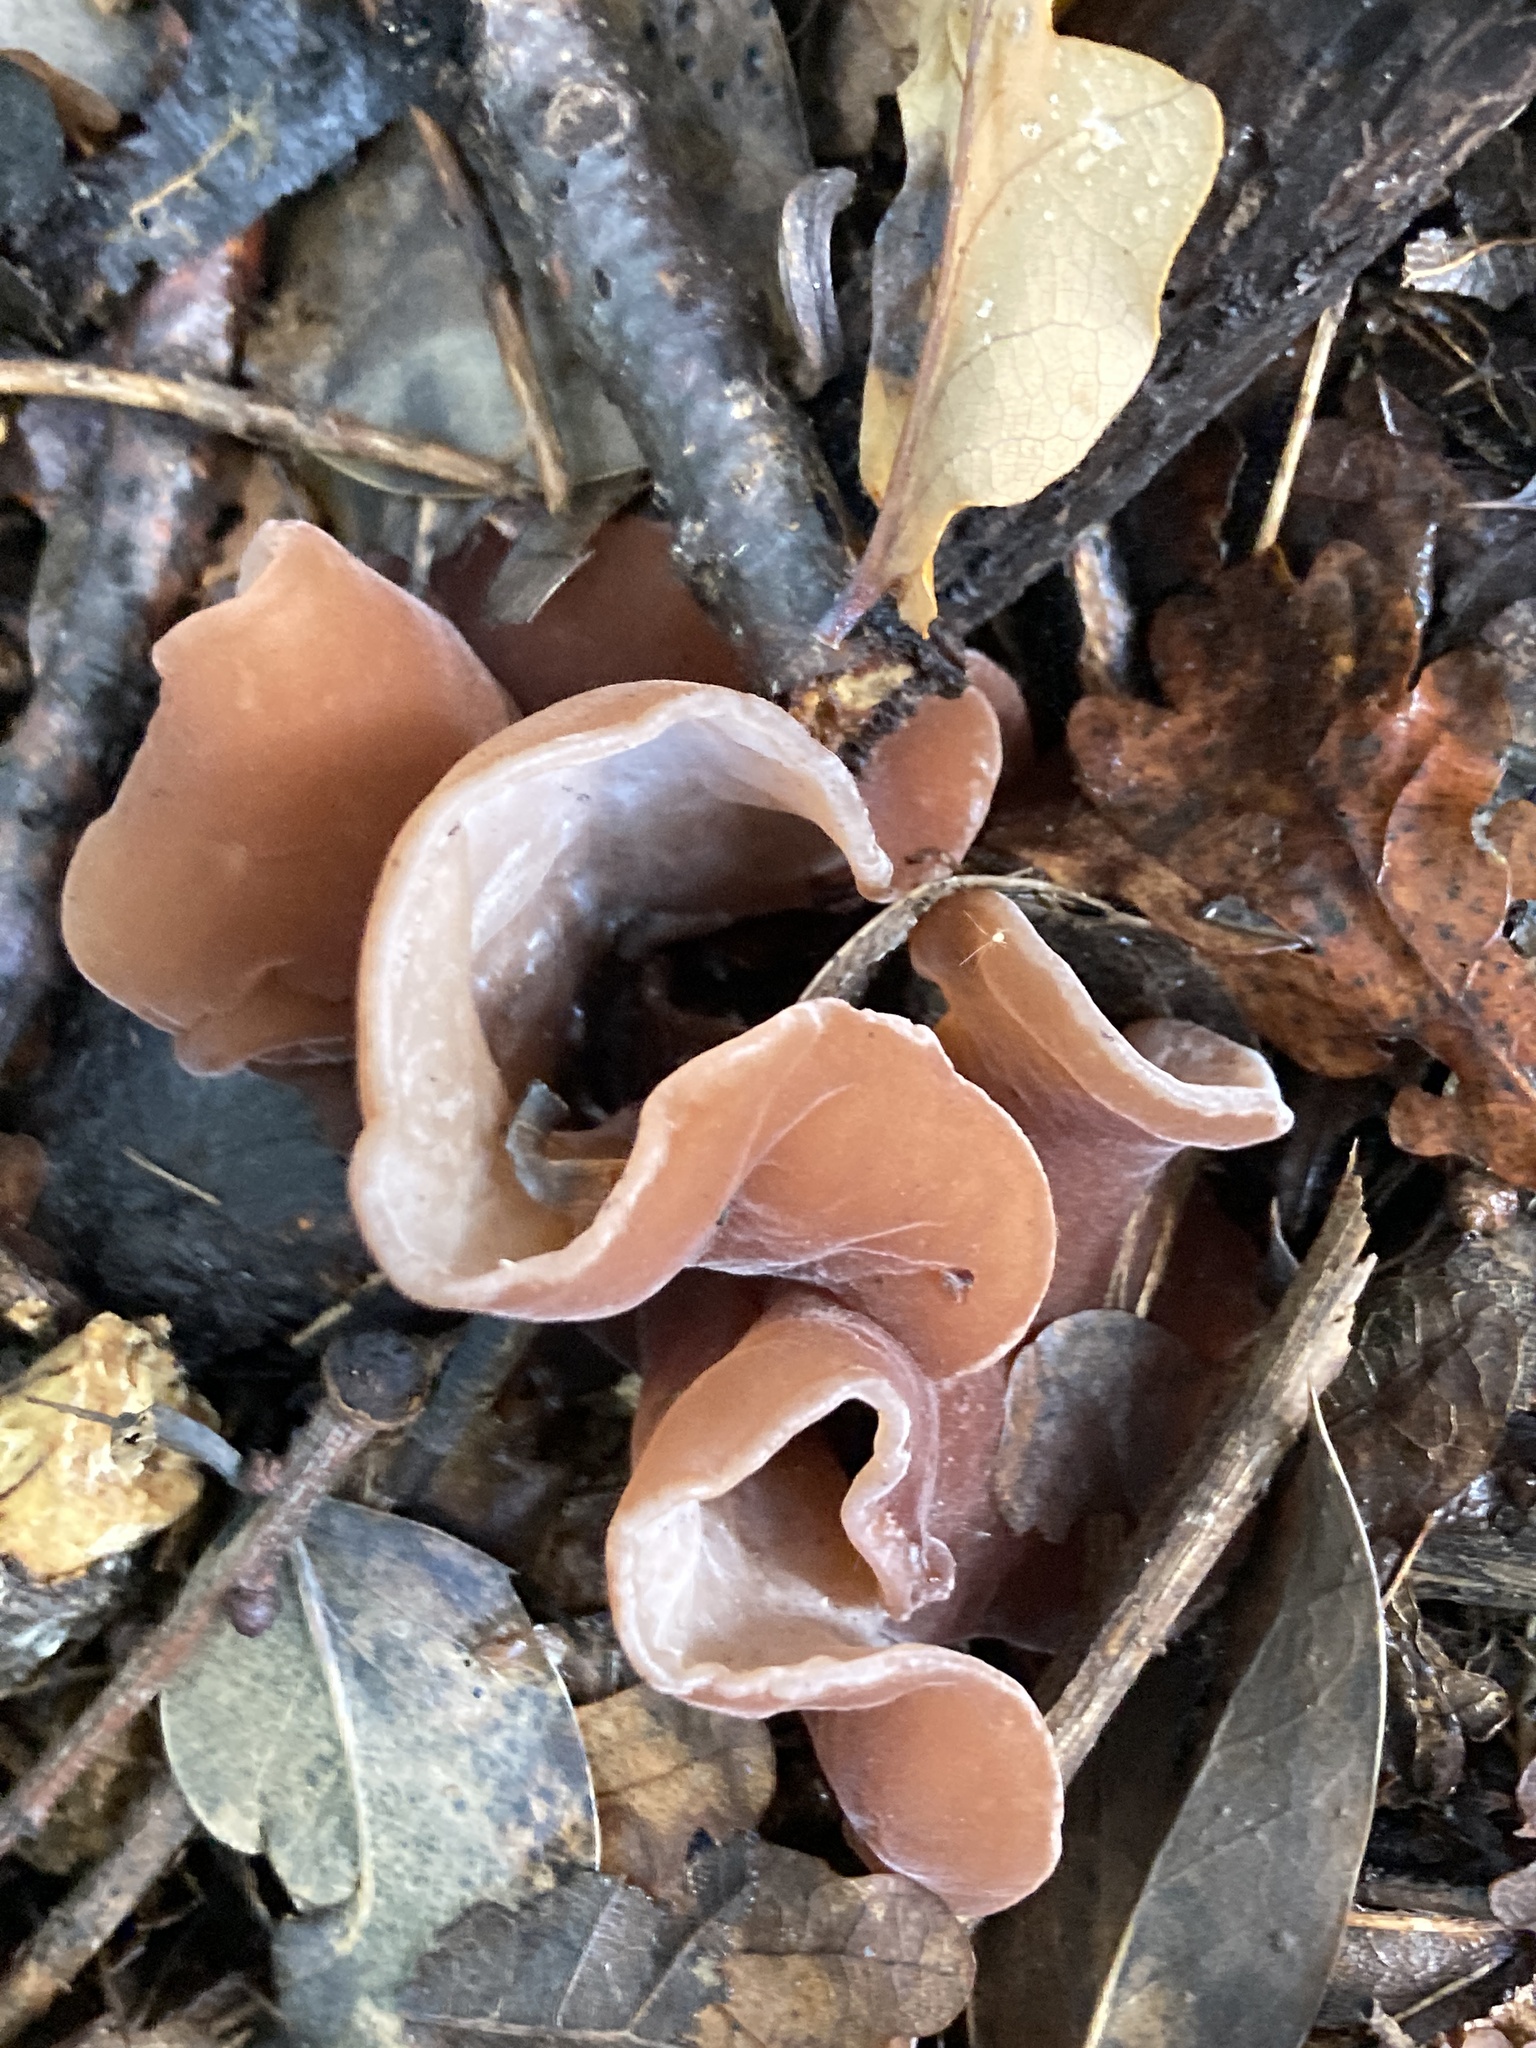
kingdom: Fungi
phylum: Basidiomycota
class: Agaricomycetes
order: Auriculariales
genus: Guepinia
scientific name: Guepinia helvelloides
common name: Salmon salad
